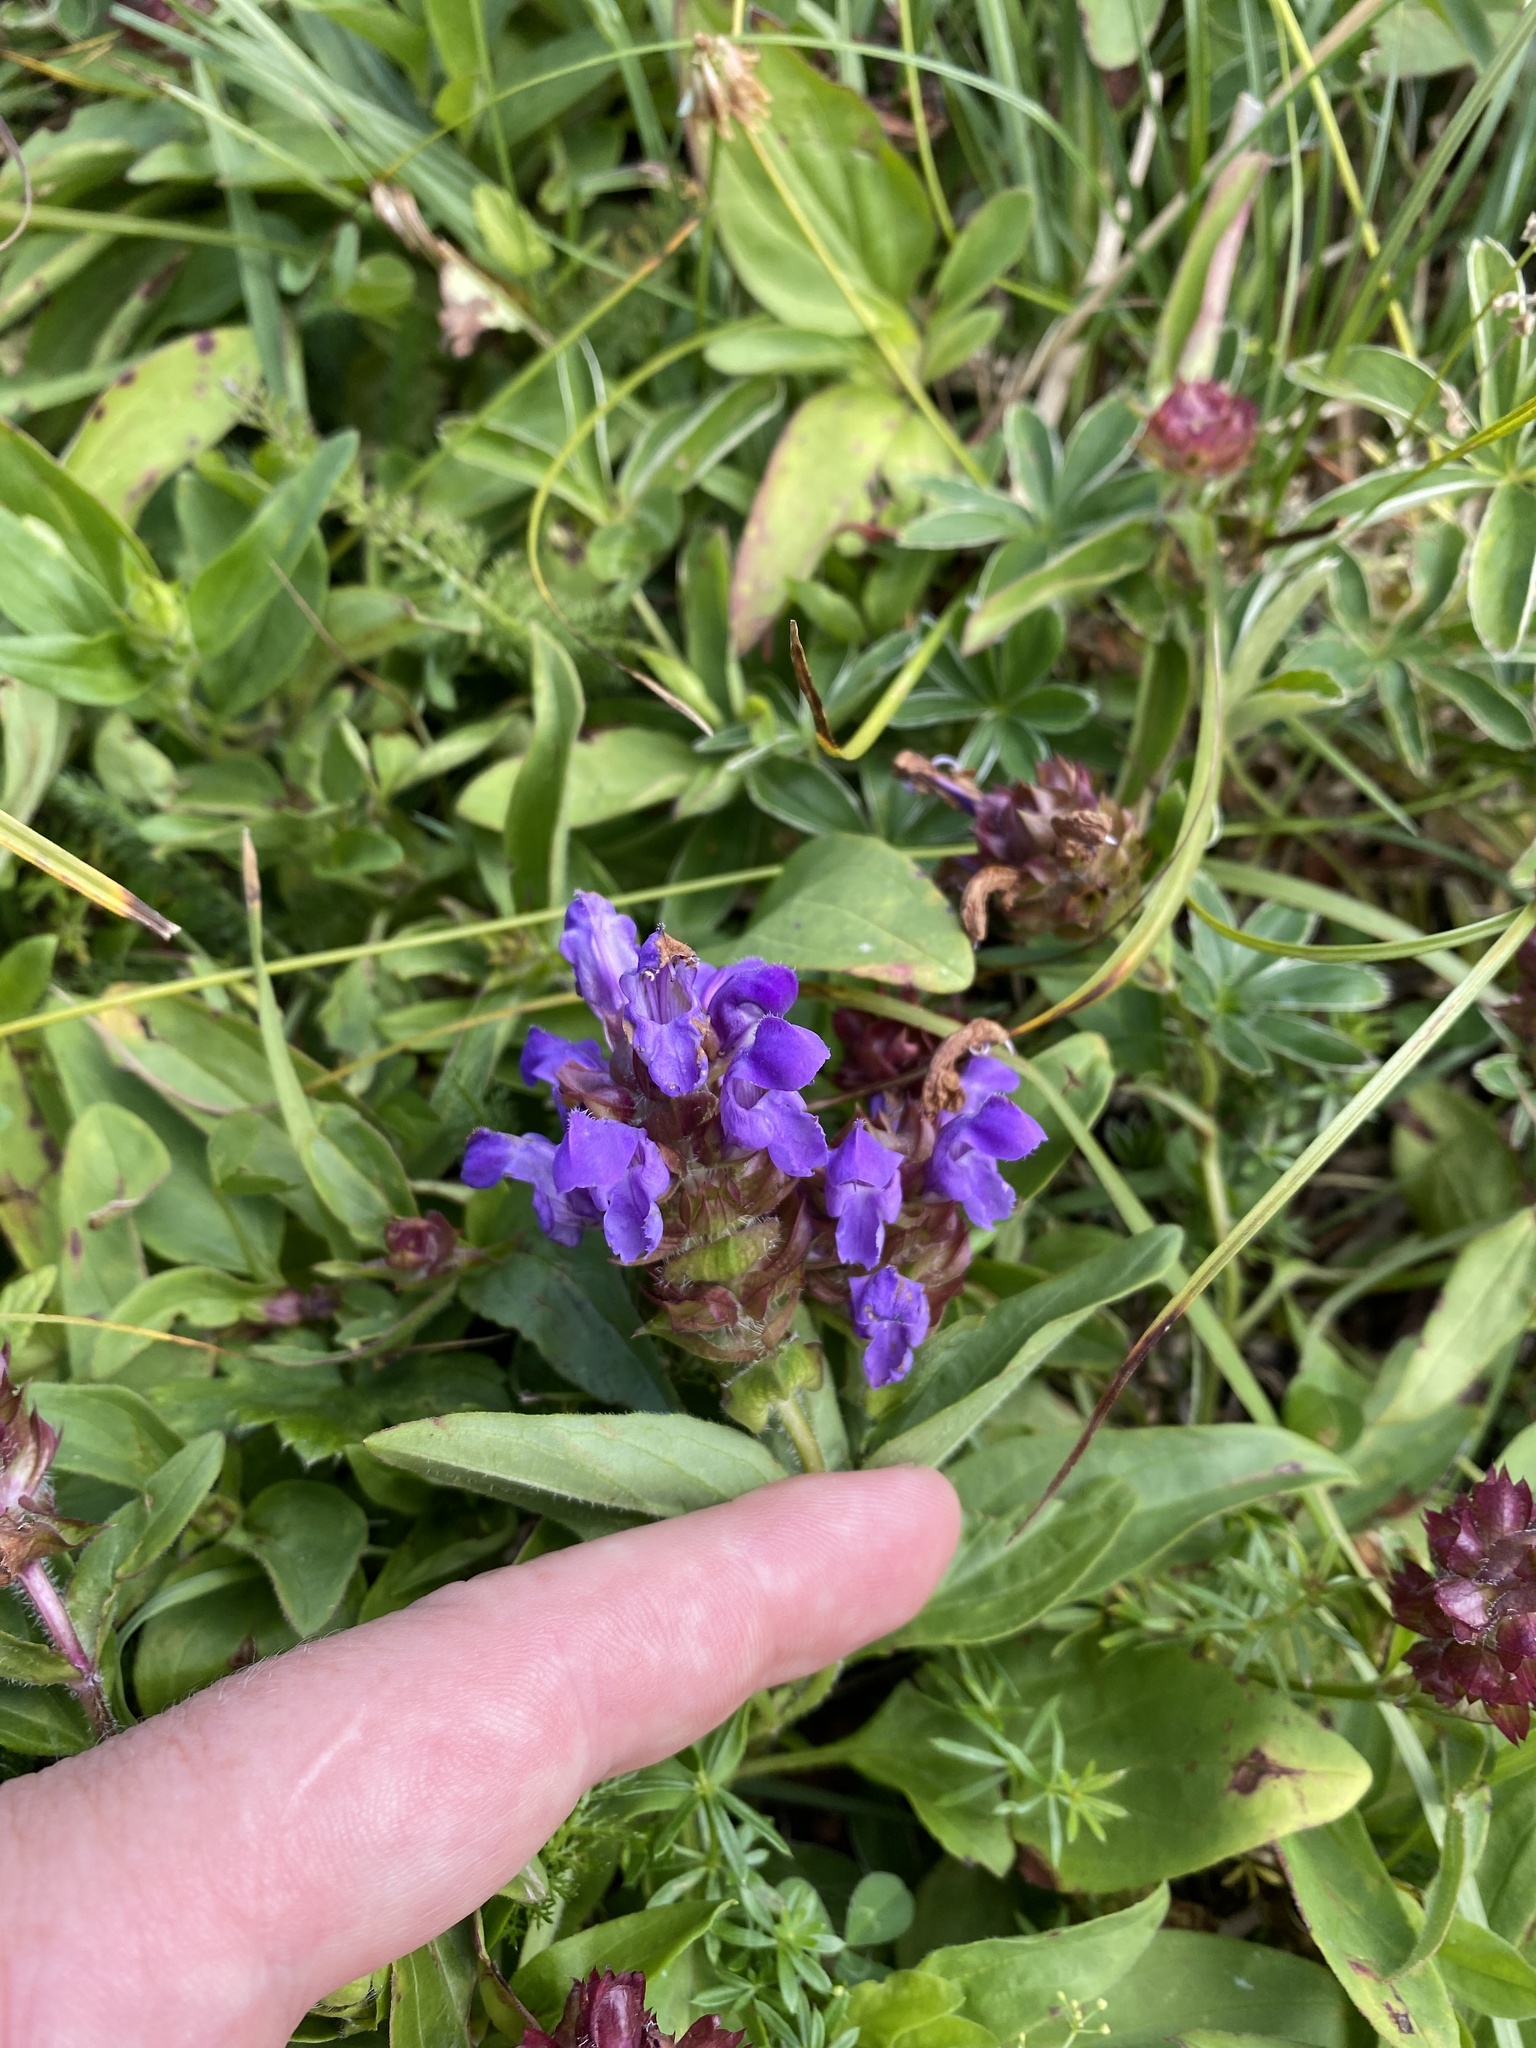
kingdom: Plantae
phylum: Tracheophyta
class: Magnoliopsida
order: Lamiales
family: Lamiaceae
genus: Prunella
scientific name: Prunella grandiflora
